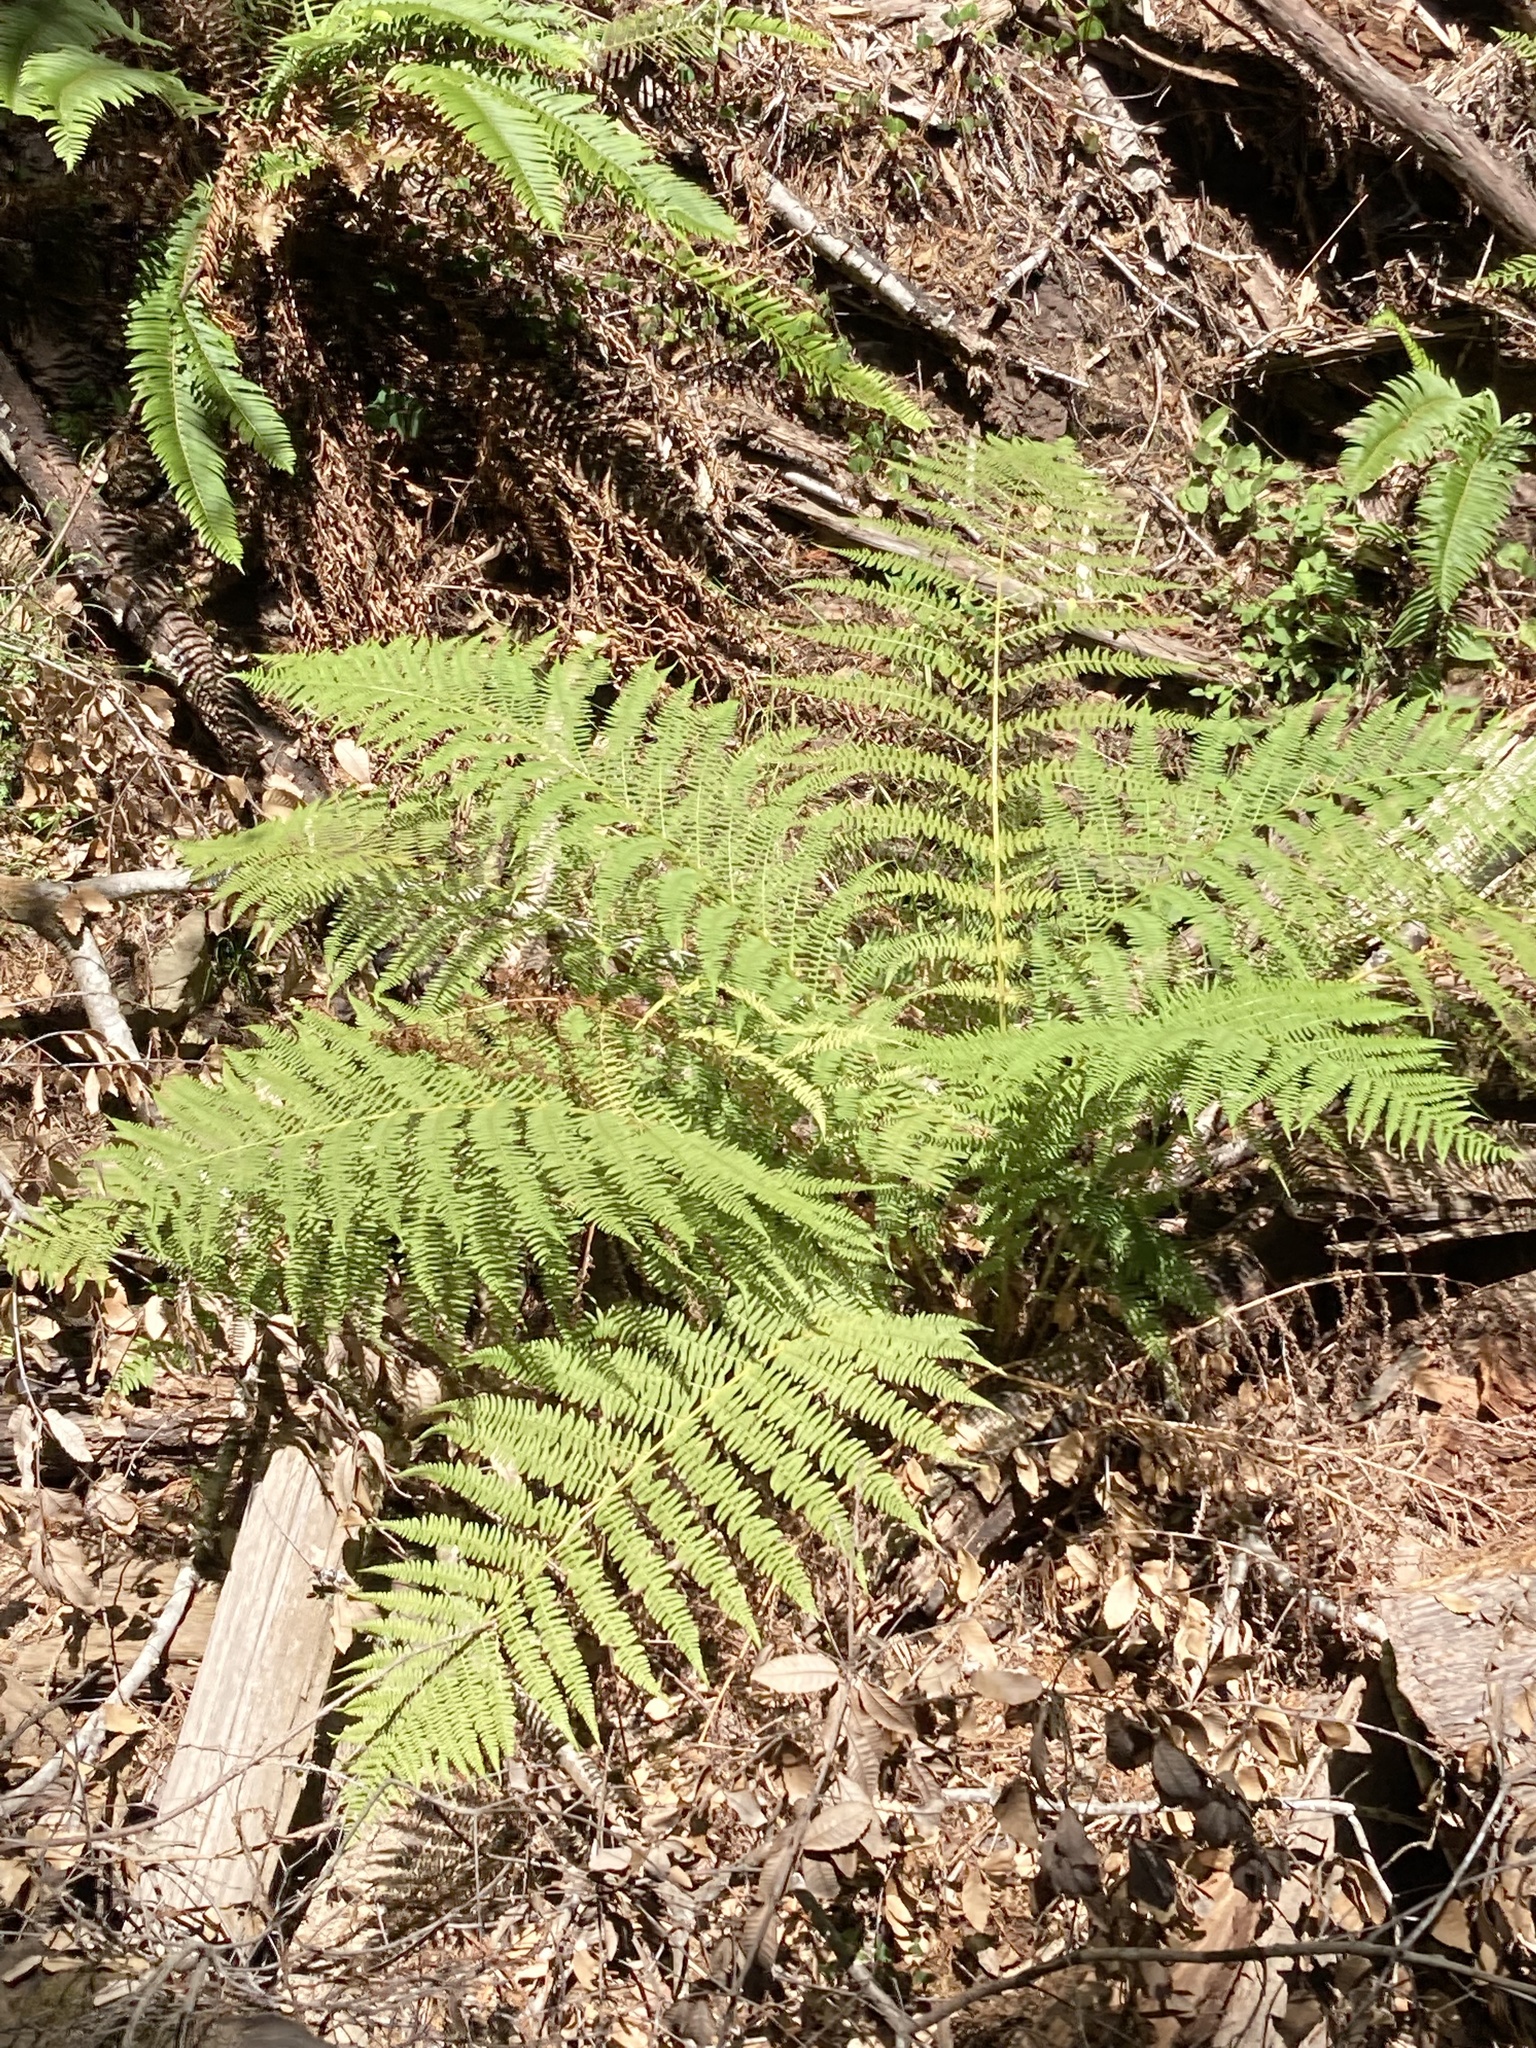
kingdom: Plantae
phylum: Tracheophyta
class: Polypodiopsida
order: Polypodiales
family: Athyriaceae
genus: Athyrium
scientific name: Athyrium cyclosorum
